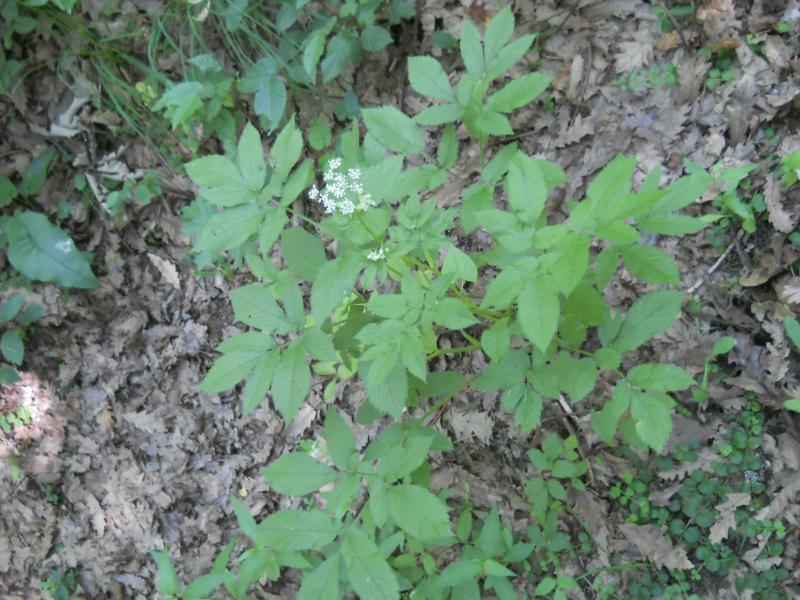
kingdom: Plantae
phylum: Tracheophyta
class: Magnoliopsida
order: Apiales
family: Apiaceae
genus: Chaerophyllum
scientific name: Chaerophyllum aromaticum
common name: Broadleaf chervil
